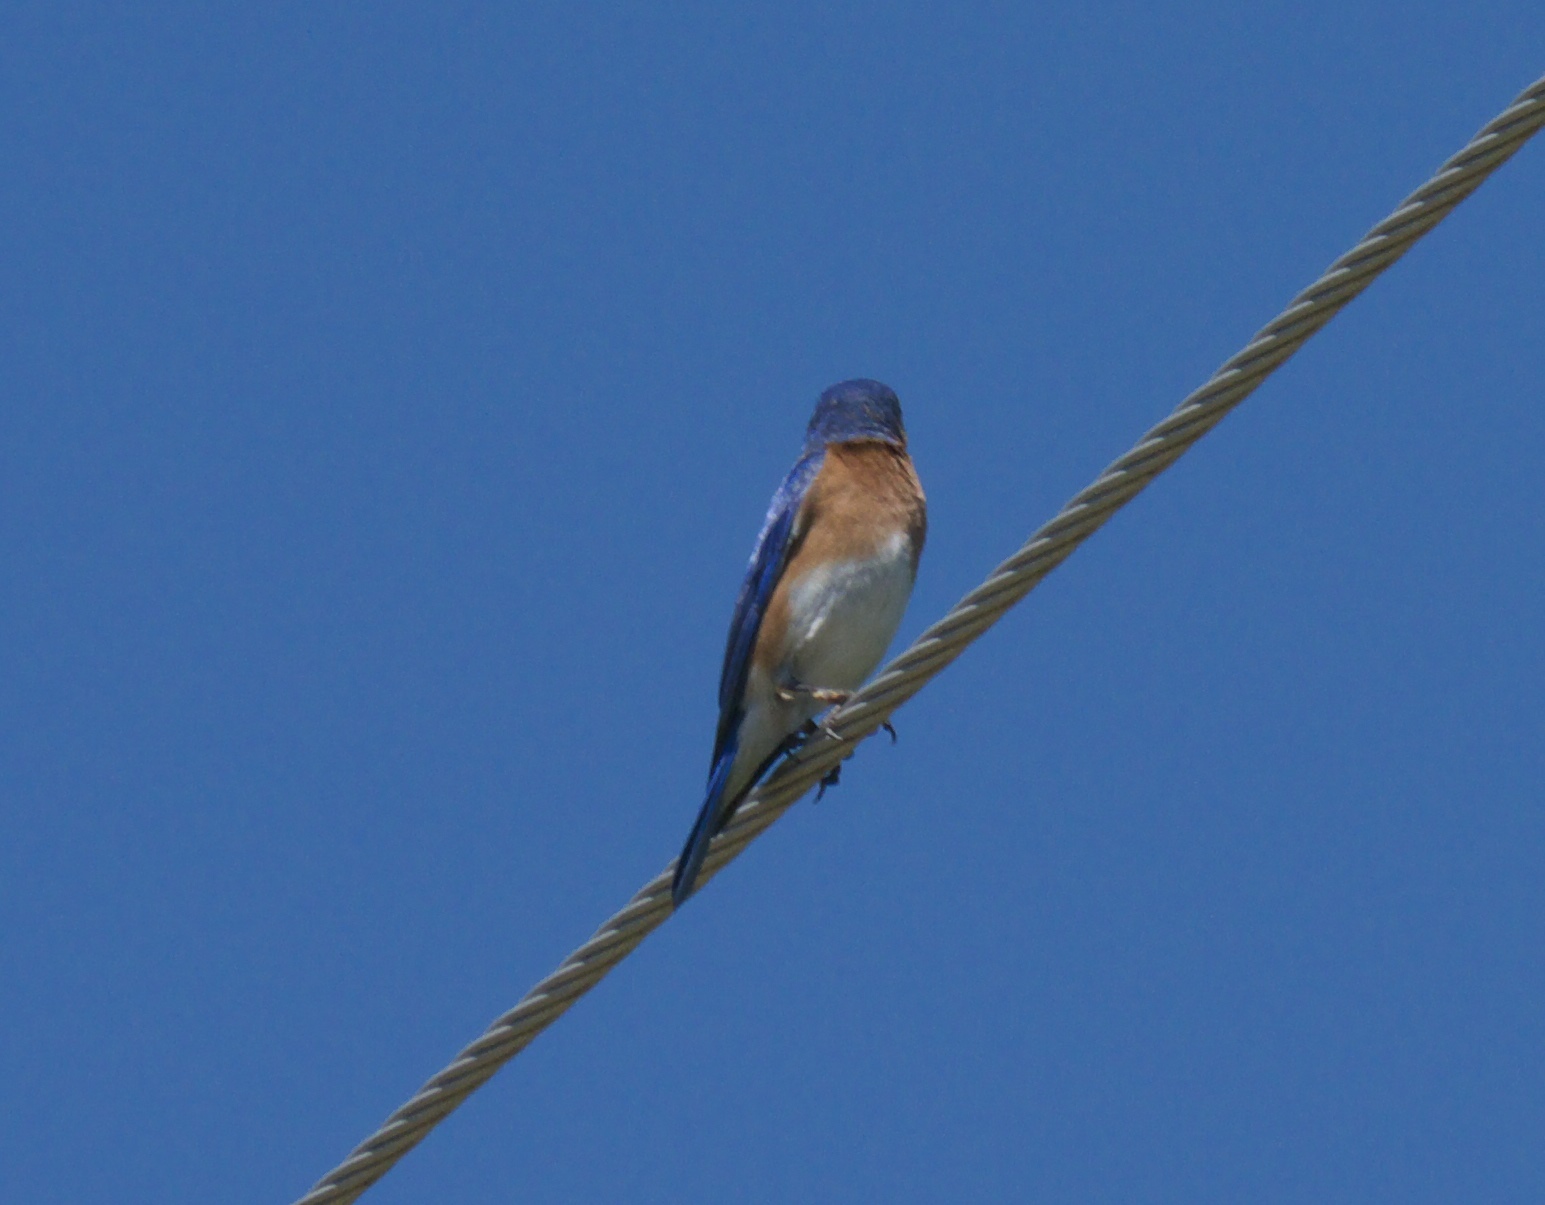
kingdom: Animalia
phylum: Chordata
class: Aves
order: Passeriformes
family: Turdidae
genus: Sialia
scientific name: Sialia sialis
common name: Eastern bluebird
